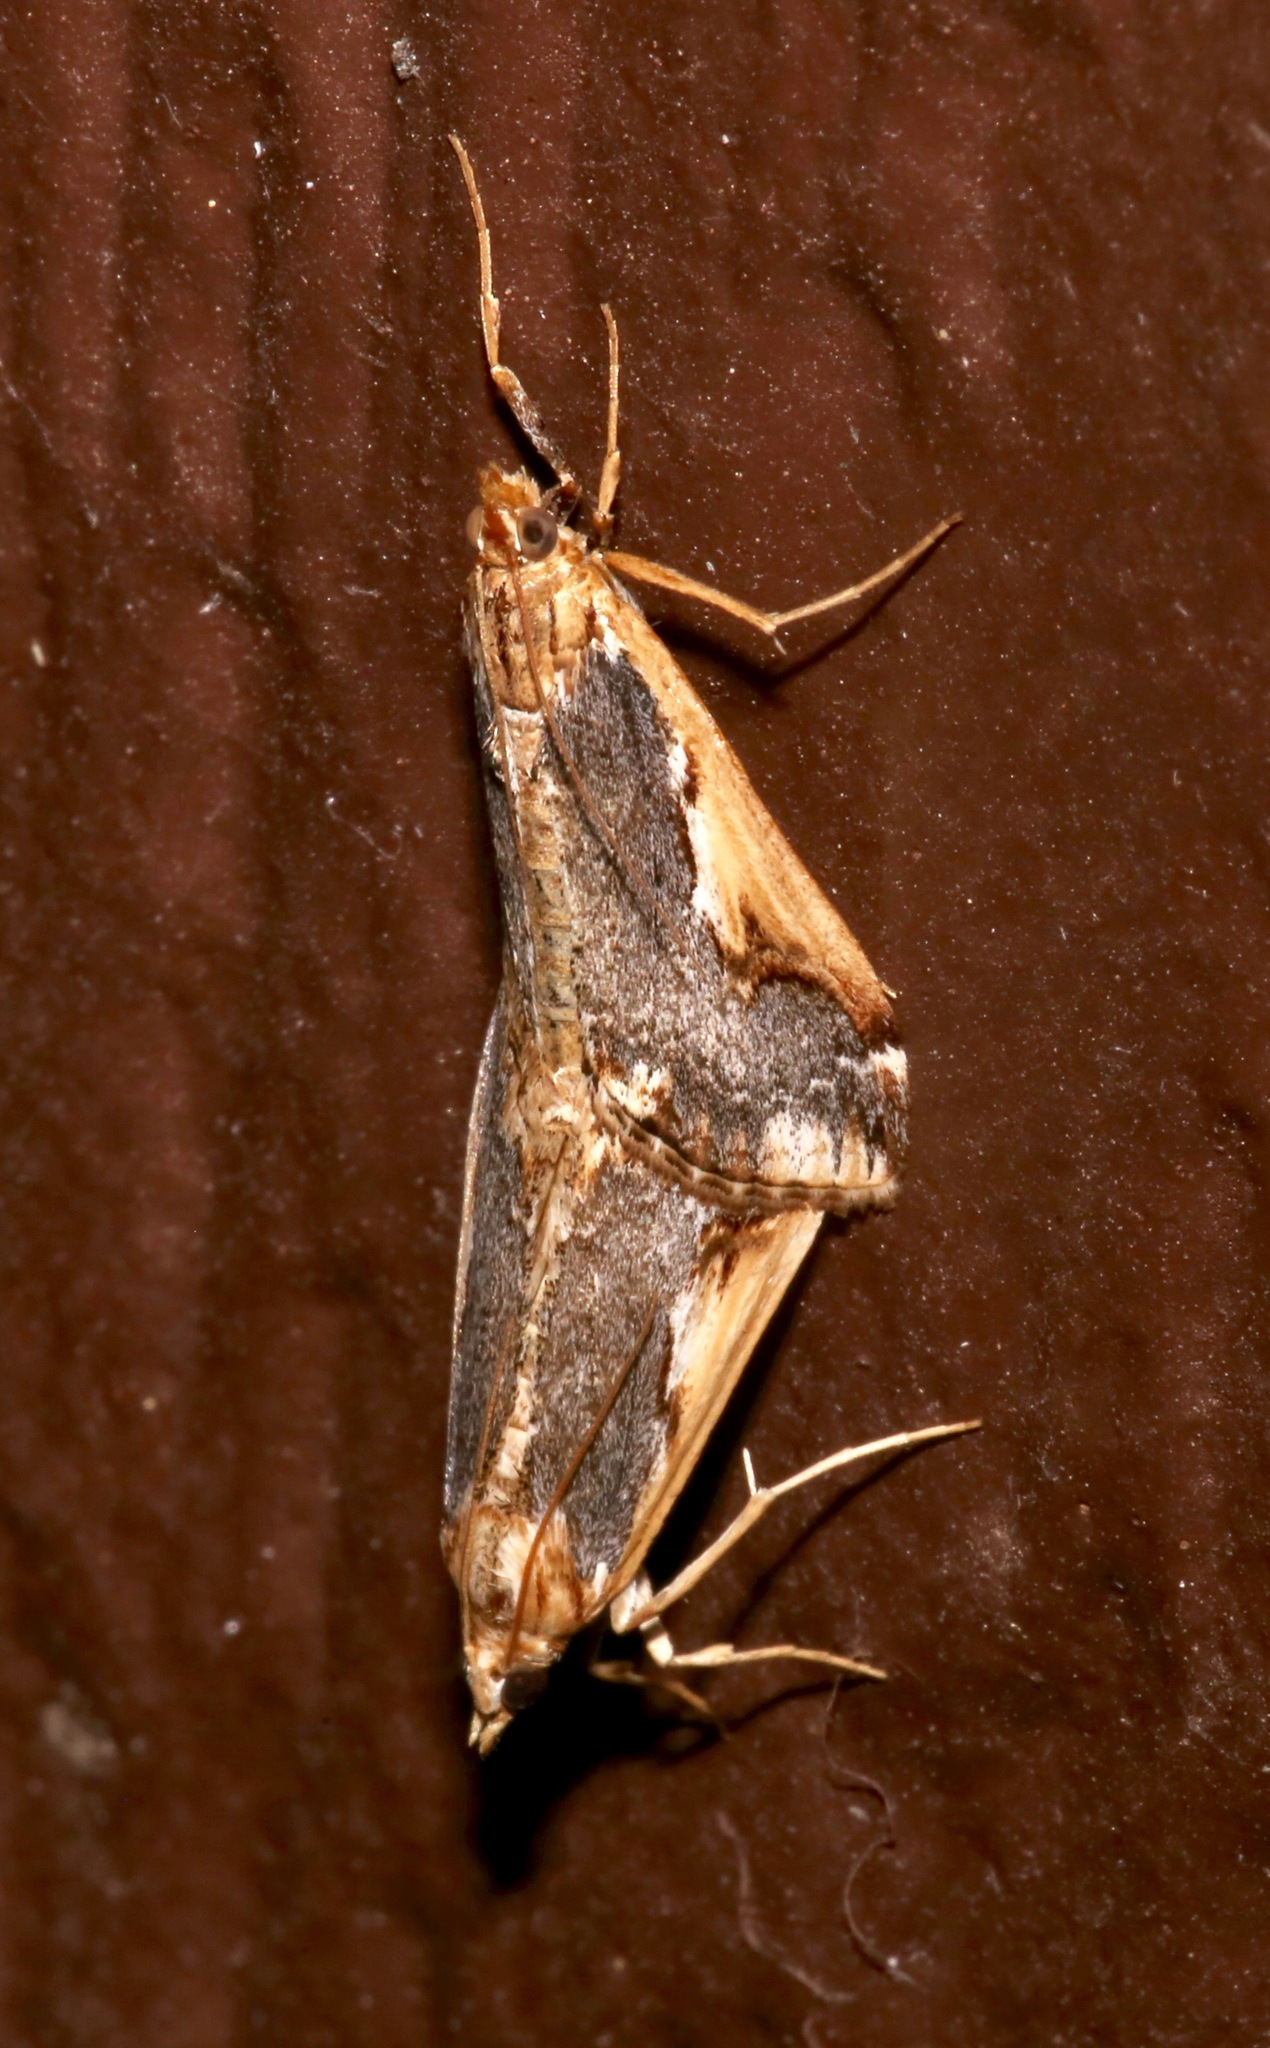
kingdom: Animalia
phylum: Arthropoda
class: Insecta
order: Lepidoptera
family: Crambidae
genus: Loxostege
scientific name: Loxostege albiceralis
